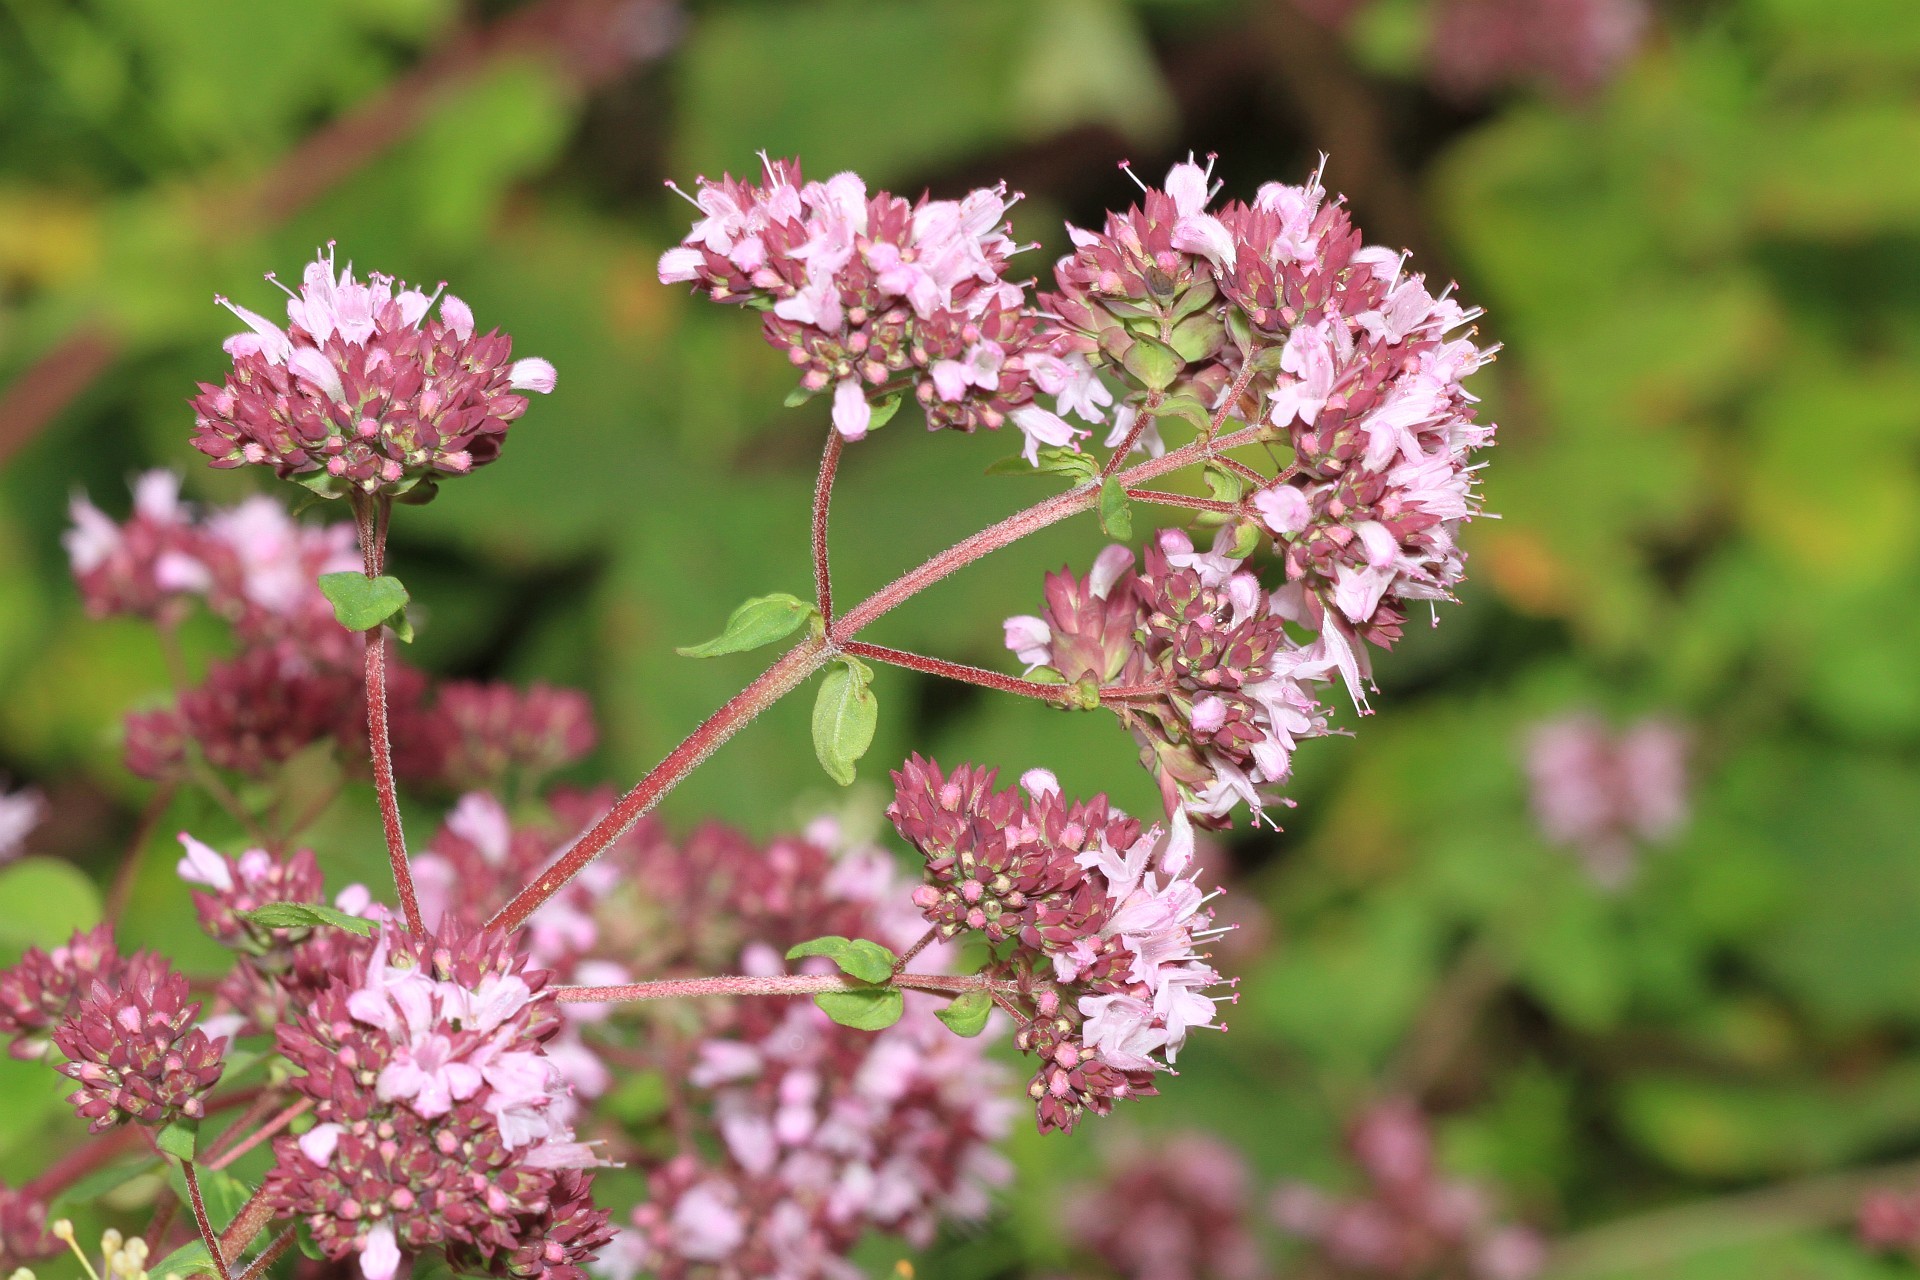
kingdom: Plantae
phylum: Tracheophyta
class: Magnoliopsida
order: Lamiales
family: Lamiaceae
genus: Origanum
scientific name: Origanum vulgare
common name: Wild marjoram
